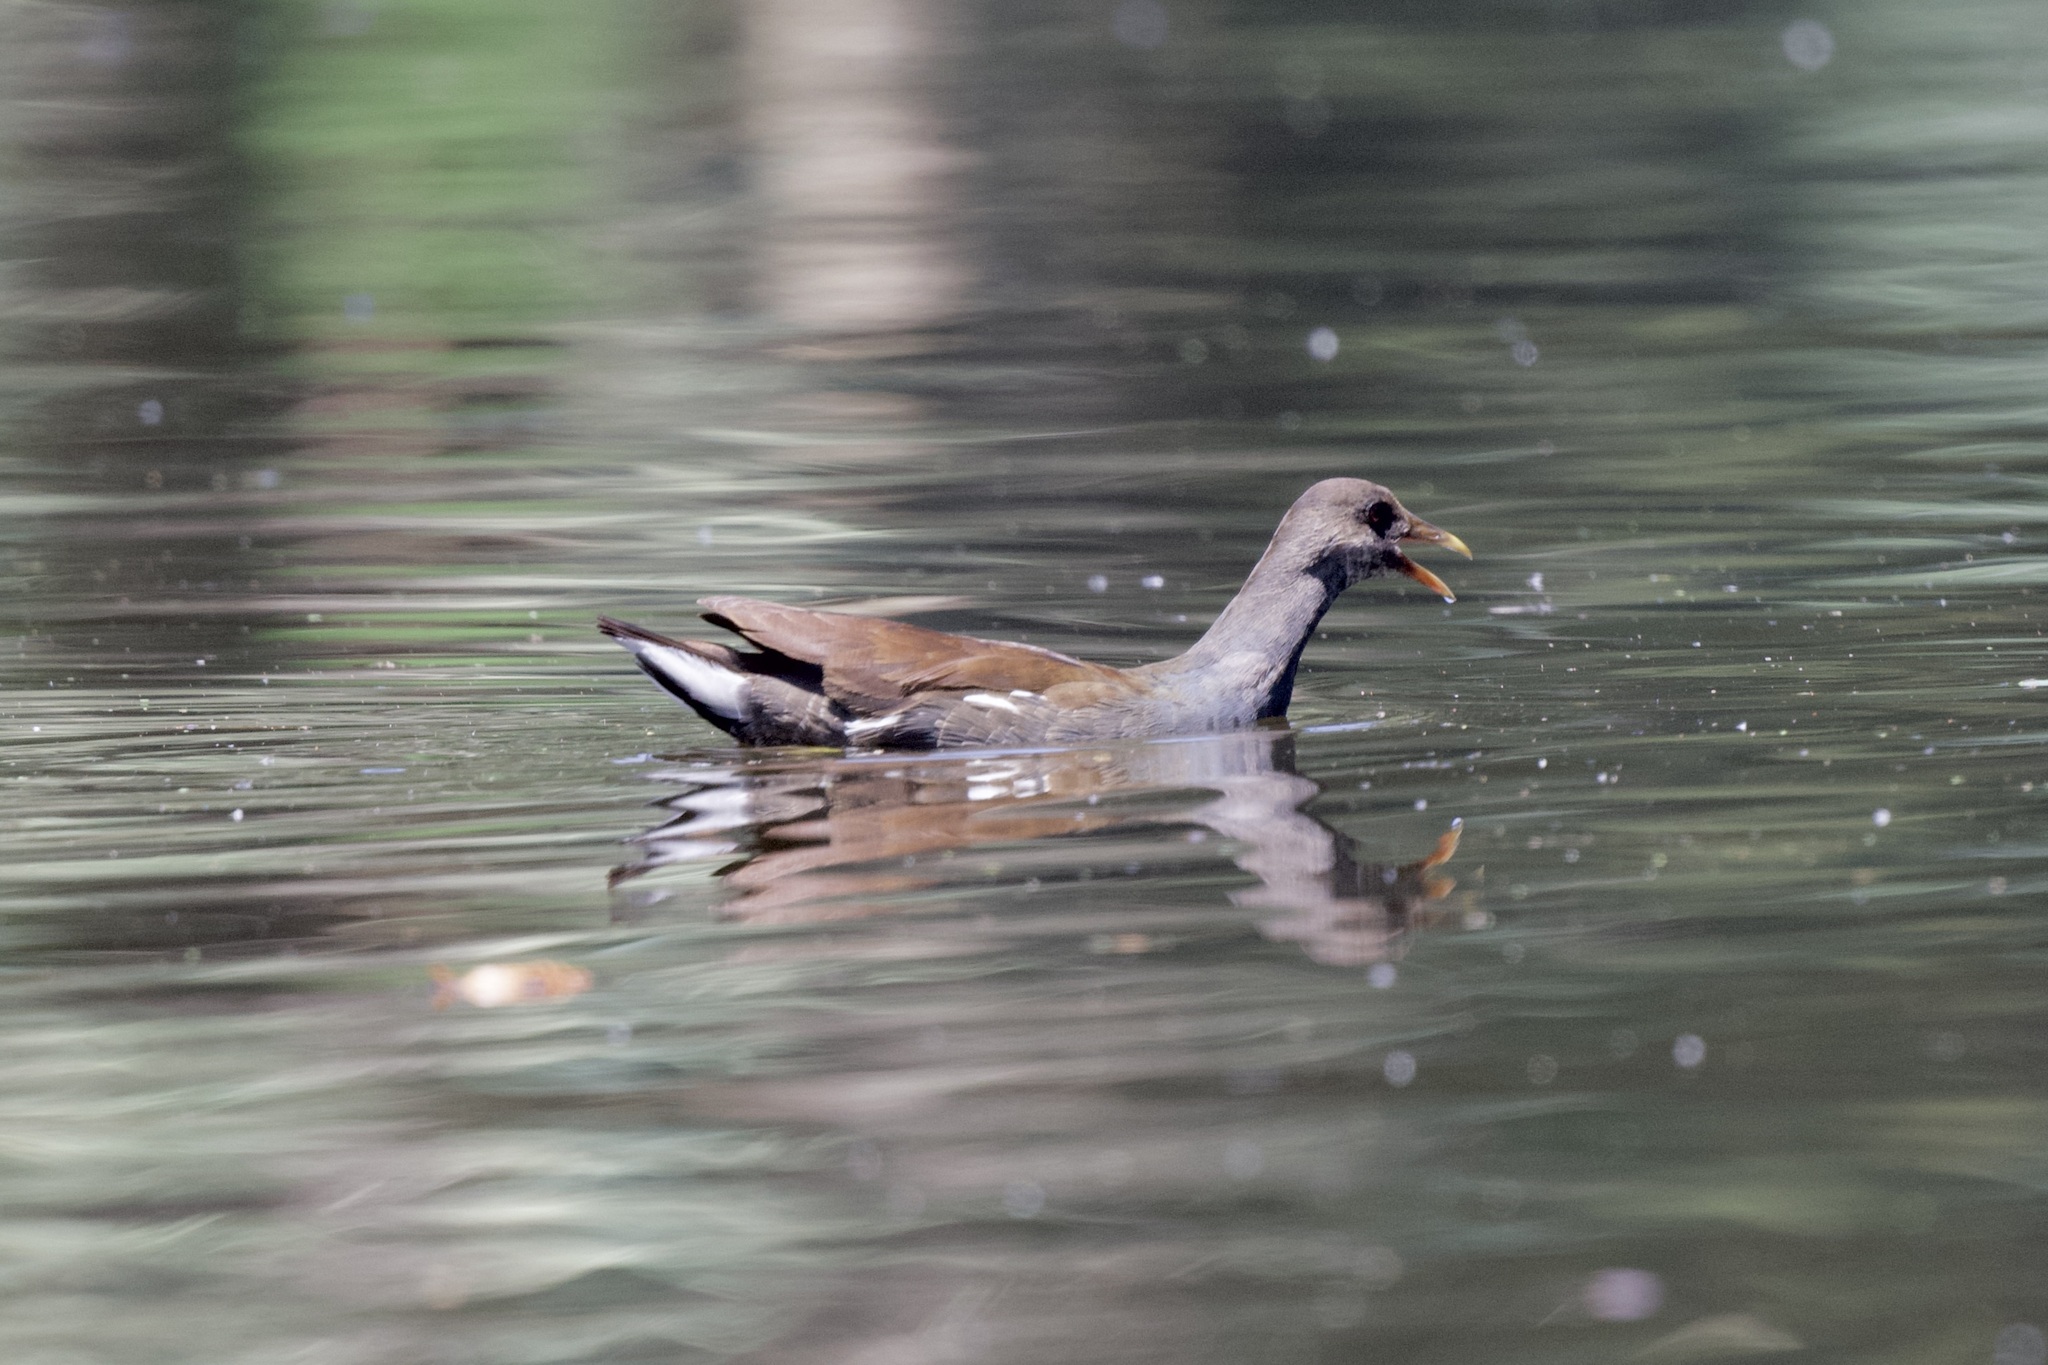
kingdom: Animalia
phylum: Chordata
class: Aves
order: Gruiformes
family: Rallidae
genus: Gallinula
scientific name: Gallinula chloropus
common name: Common moorhen
